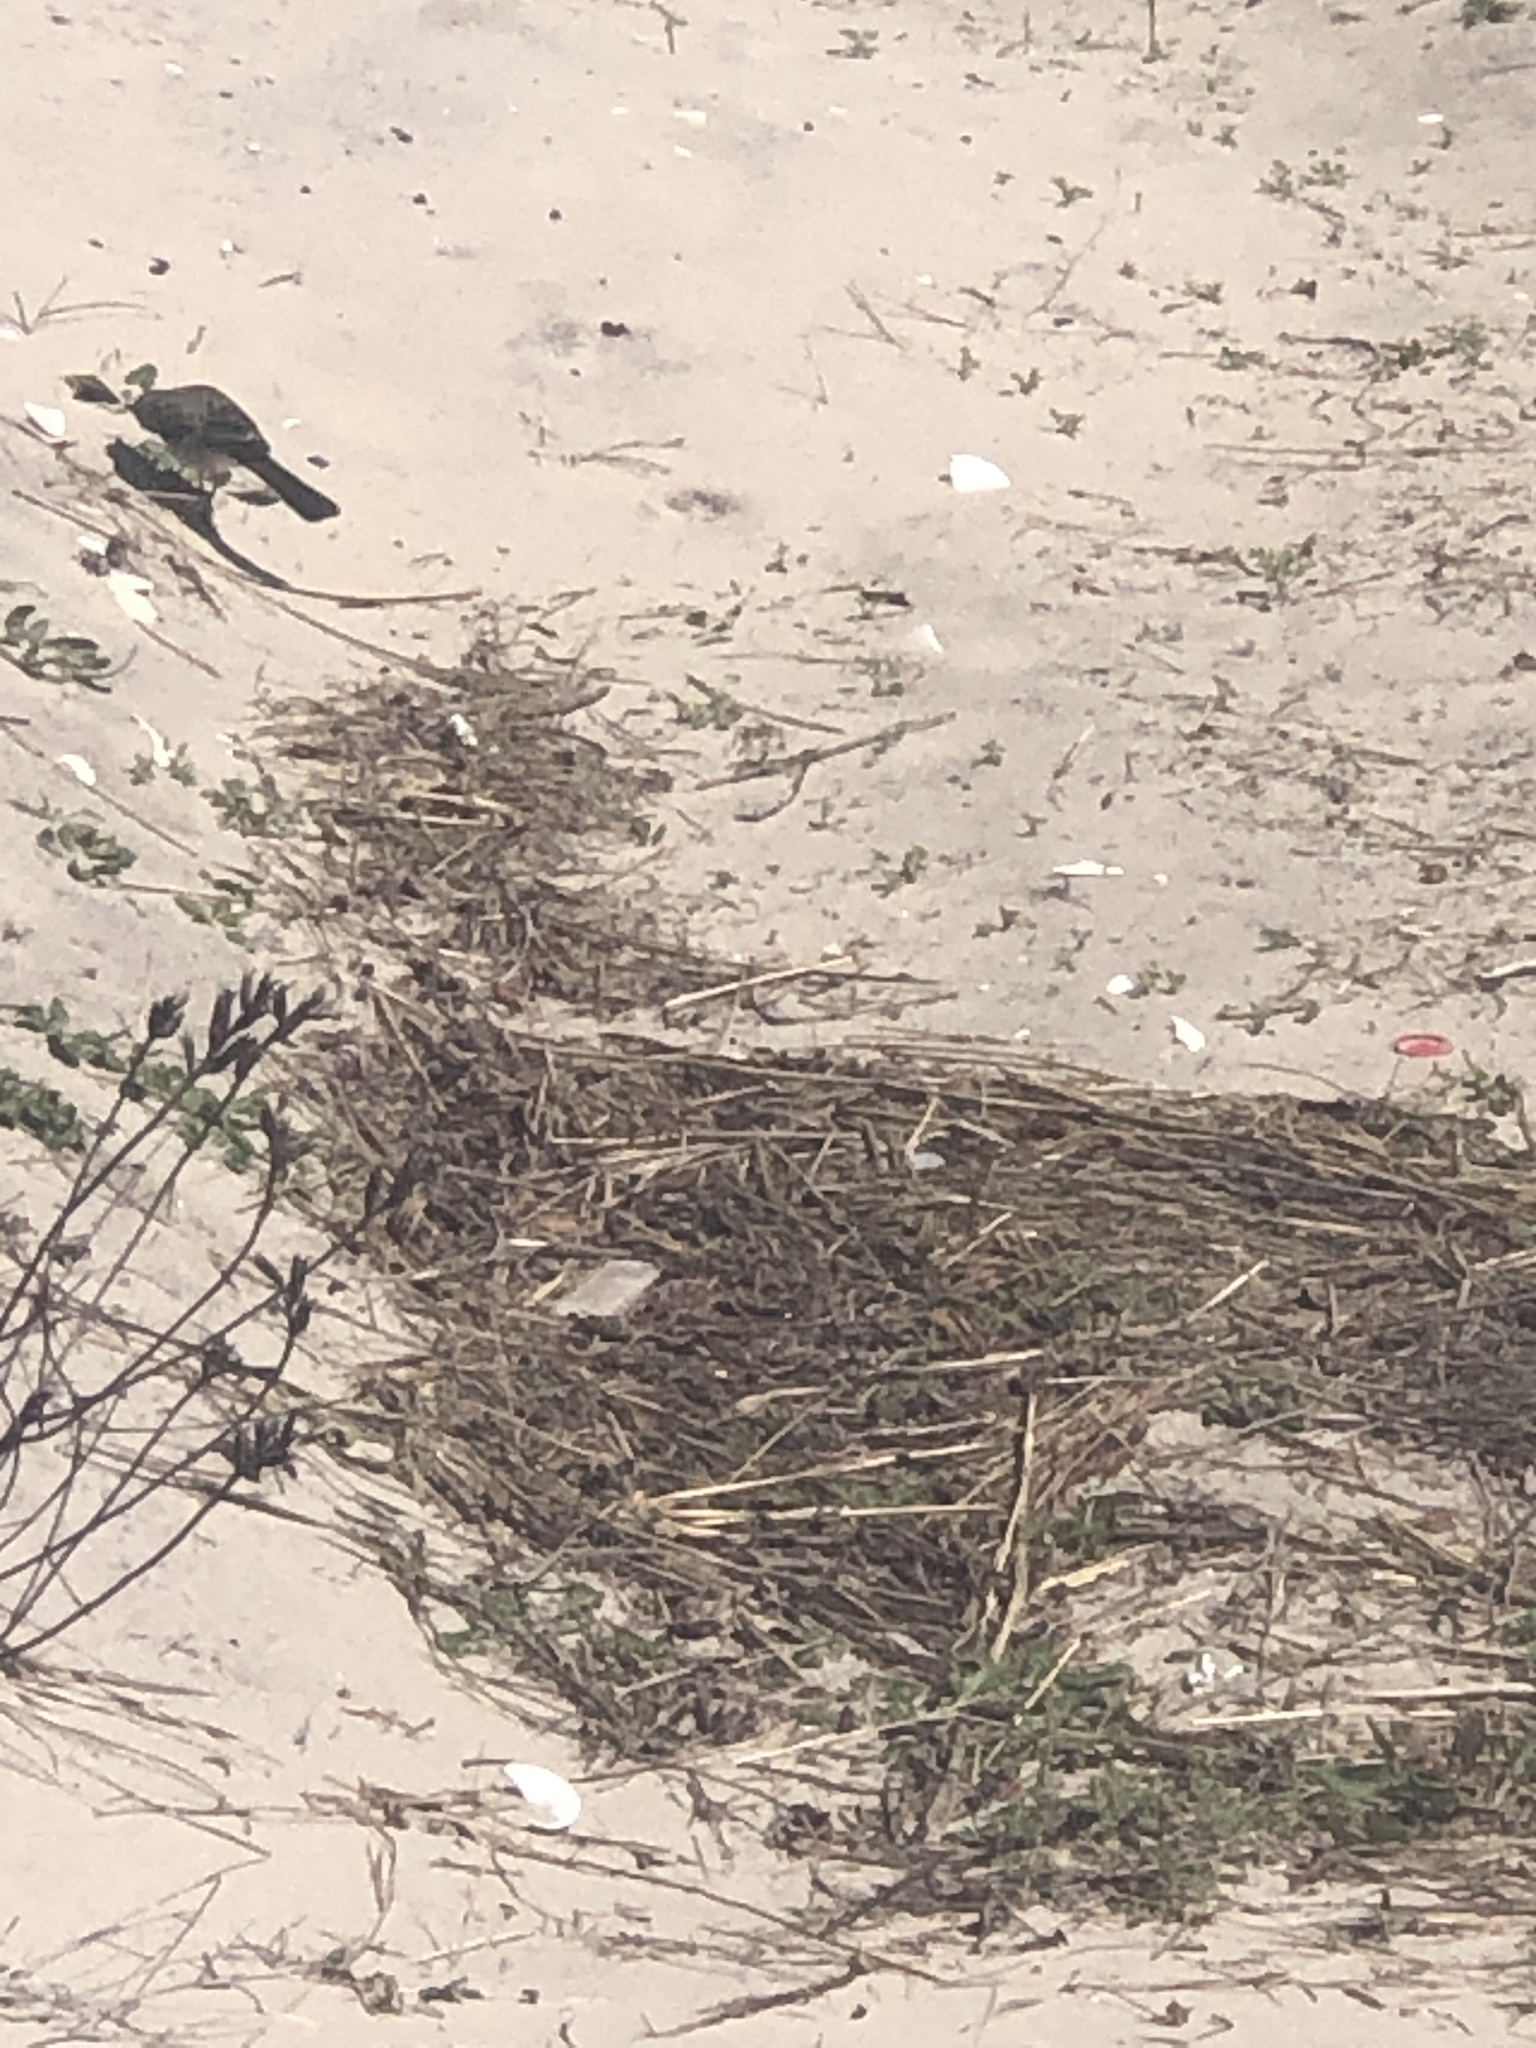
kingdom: Animalia
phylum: Chordata
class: Aves
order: Passeriformes
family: Mimidae
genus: Mimus
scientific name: Mimus polyglottos
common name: Northern mockingbird
